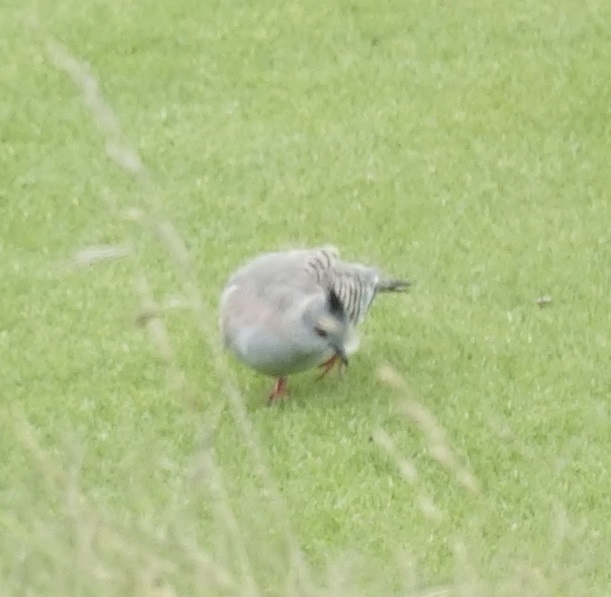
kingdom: Animalia
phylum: Chordata
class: Aves
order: Columbiformes
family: Columbidae
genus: Ocyphaps
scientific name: Ocyphaps lophotes
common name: Crested pigeon
